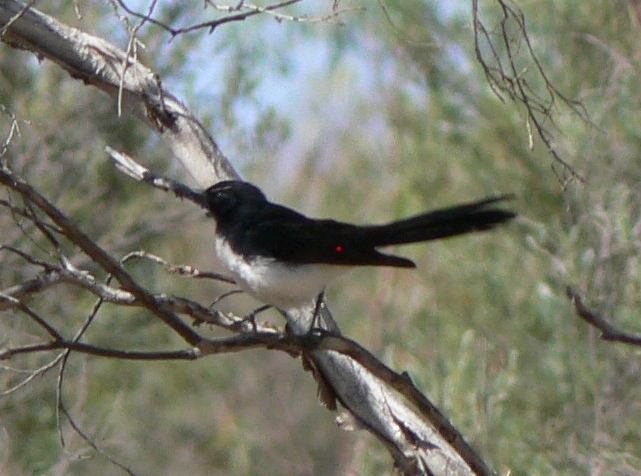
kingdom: Animalia
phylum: Chordata
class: Aves
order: Passeriformes
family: Rhipiduridae
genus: Rhipidura
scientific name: Rhipidura leucophrys
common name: Willie wagtail
